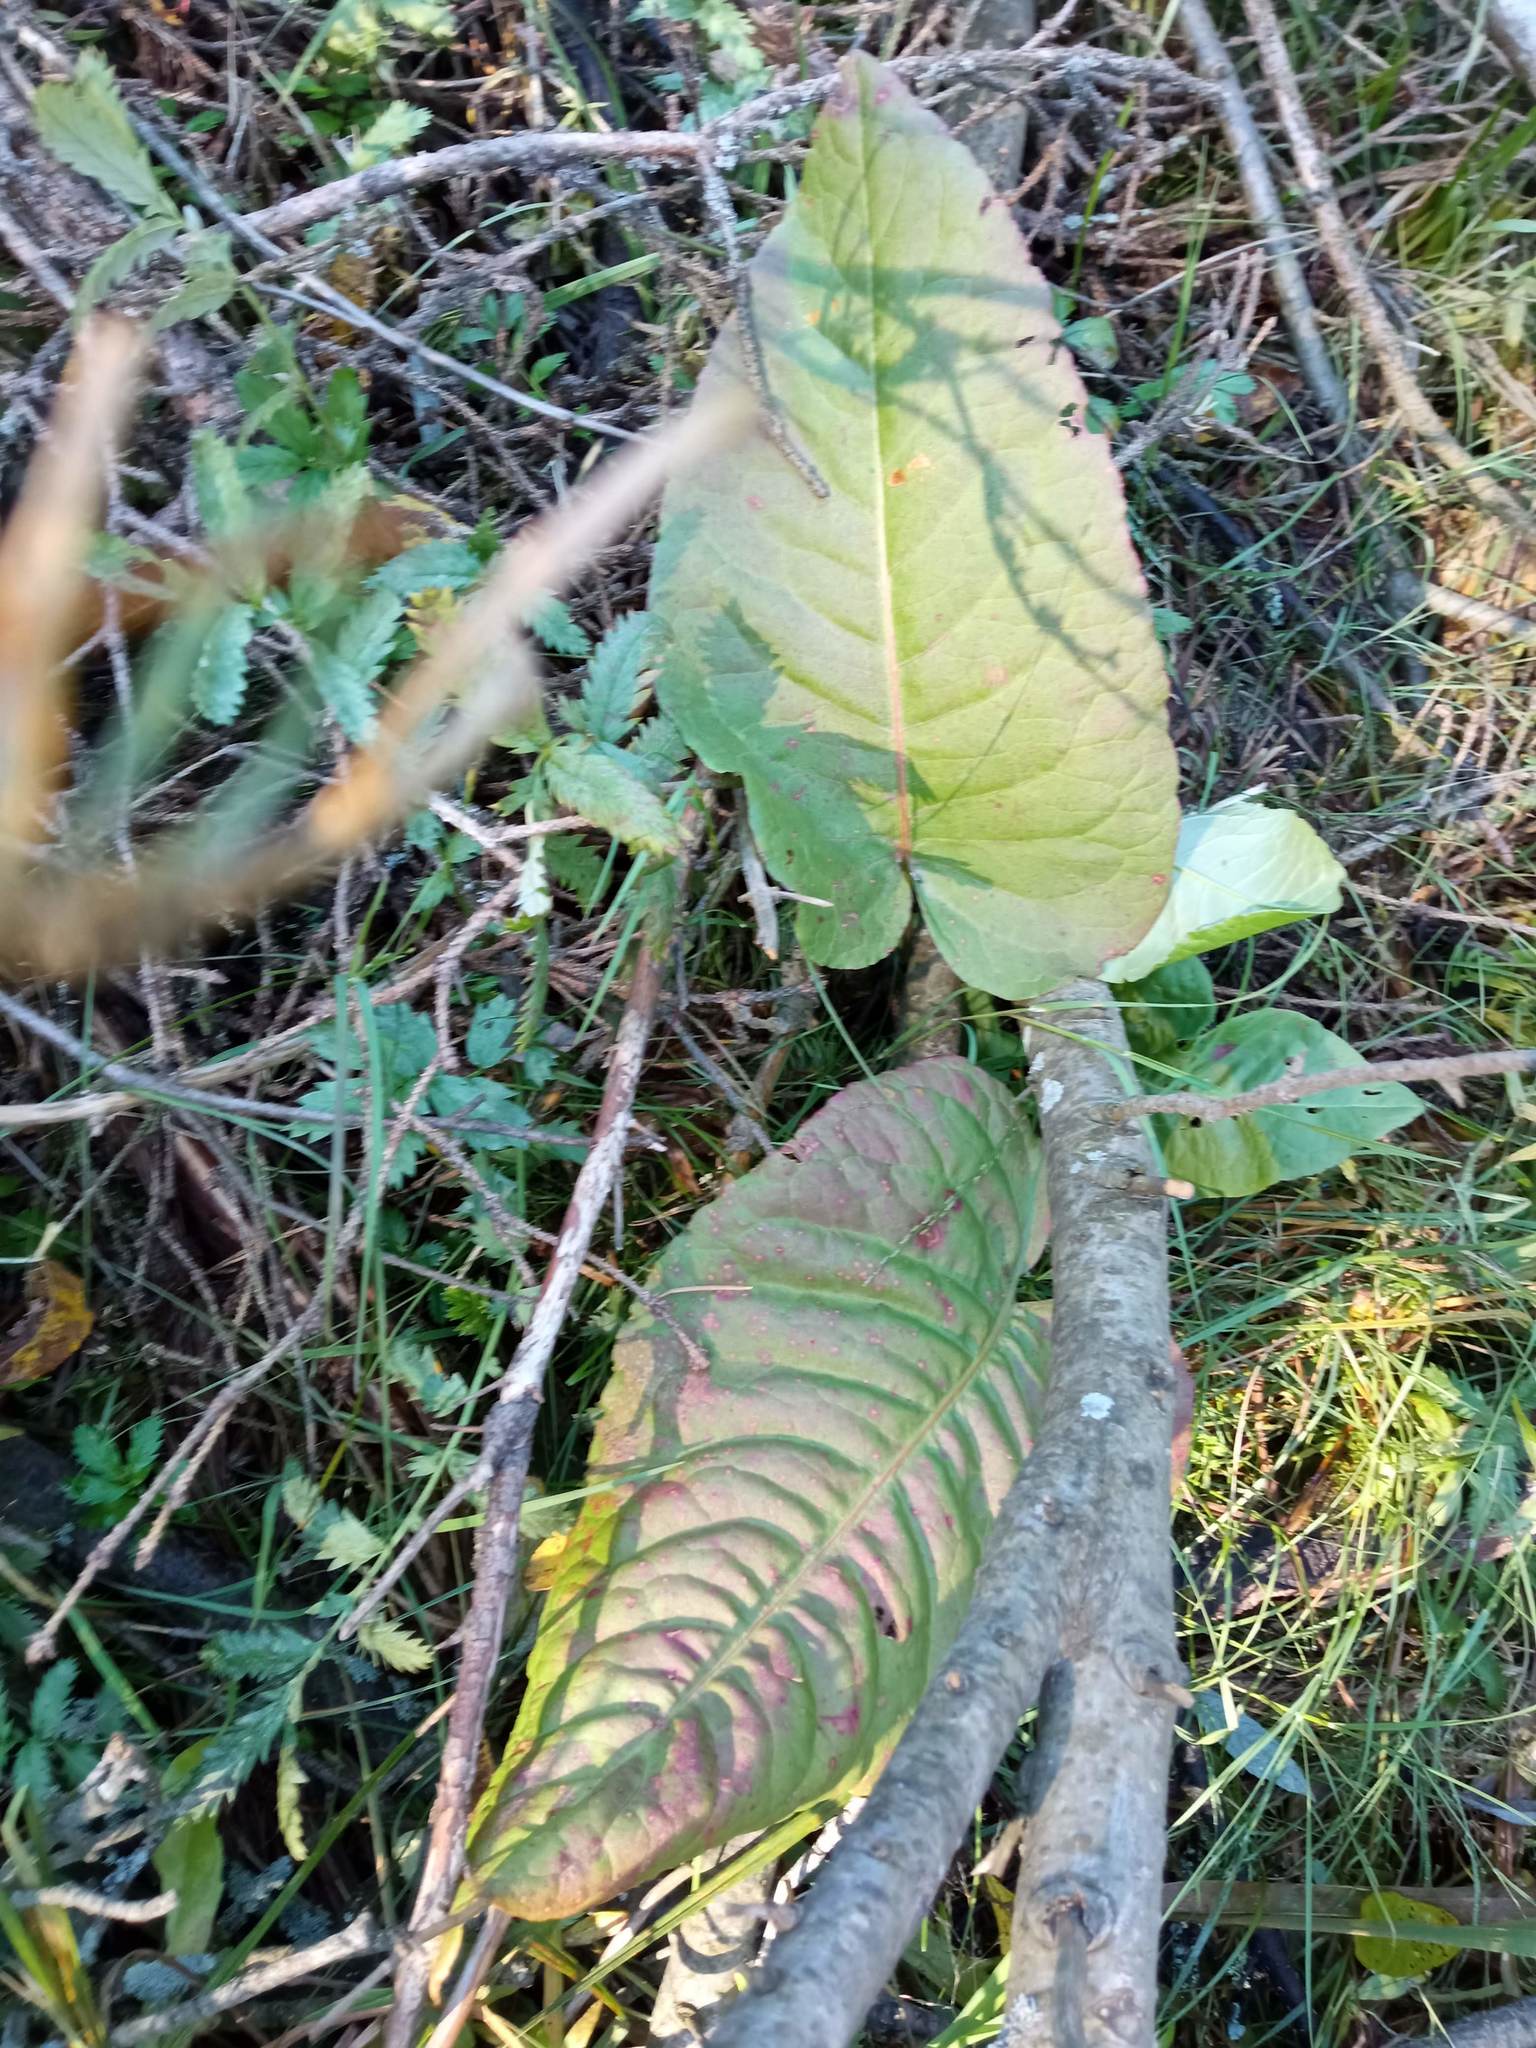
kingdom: Plantae
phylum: Tracheophyta
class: Magnoliopsida
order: Caryophyllales
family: Polygonaceae
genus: Rumex
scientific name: Rumex aquaticus
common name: Scottish dock
